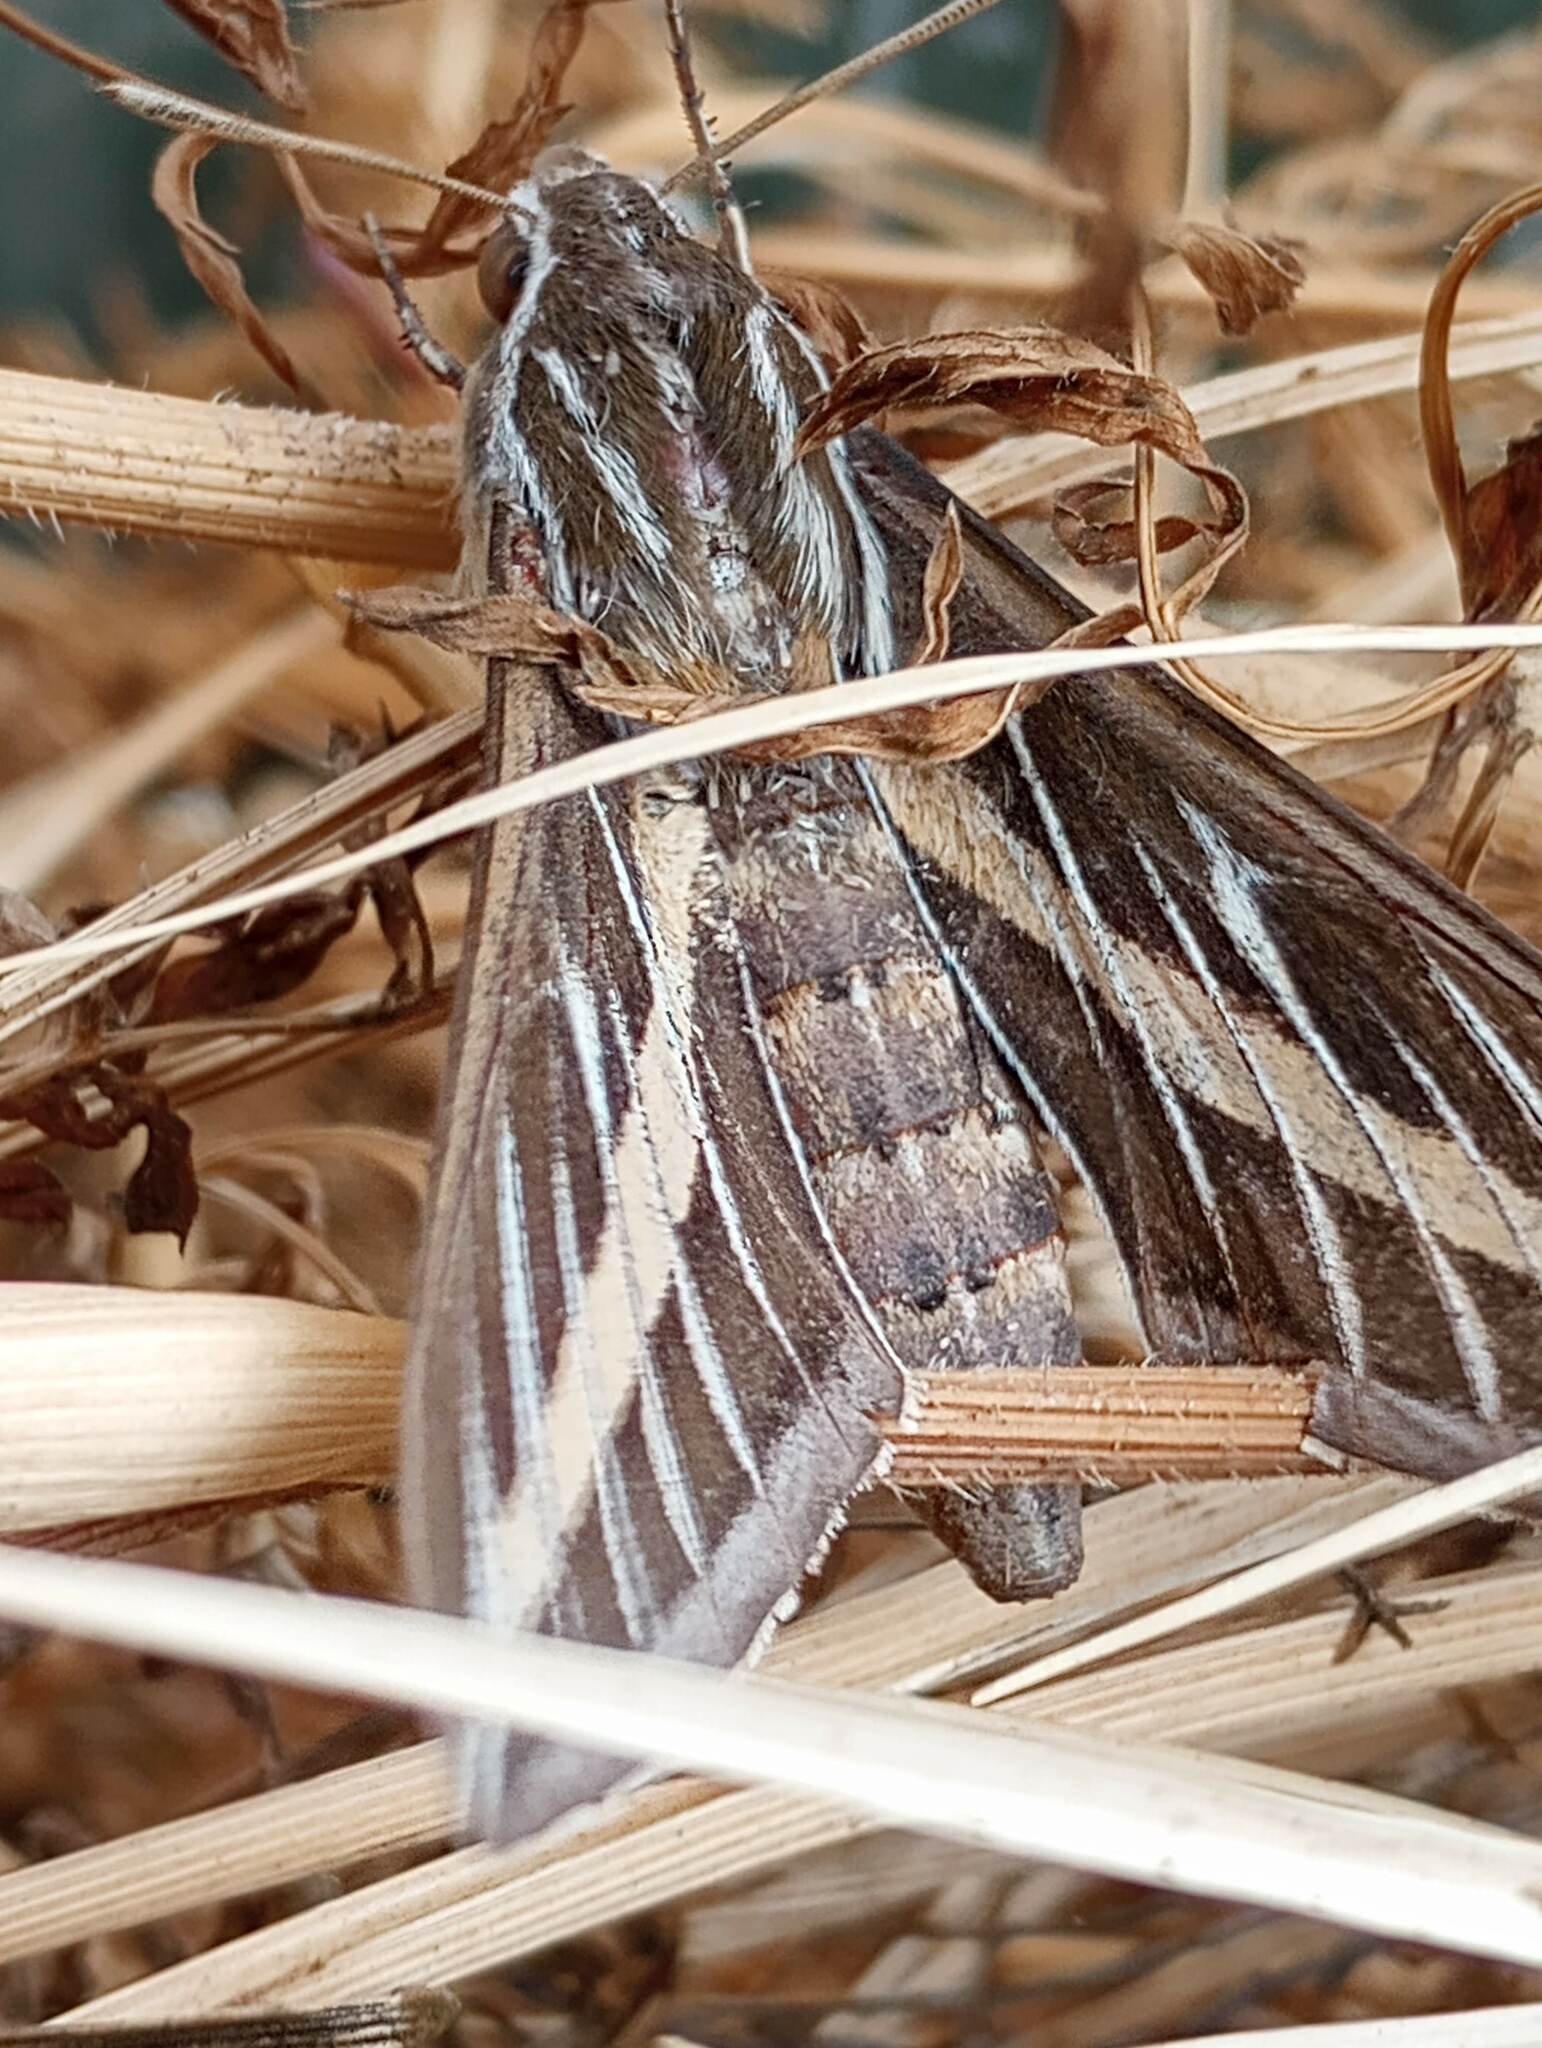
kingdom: Animalia
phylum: Arthropoda
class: Insecta
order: Lepidoptera
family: Sphingidae
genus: Hyles
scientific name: Hyles lineata
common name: White-lined sphinx
